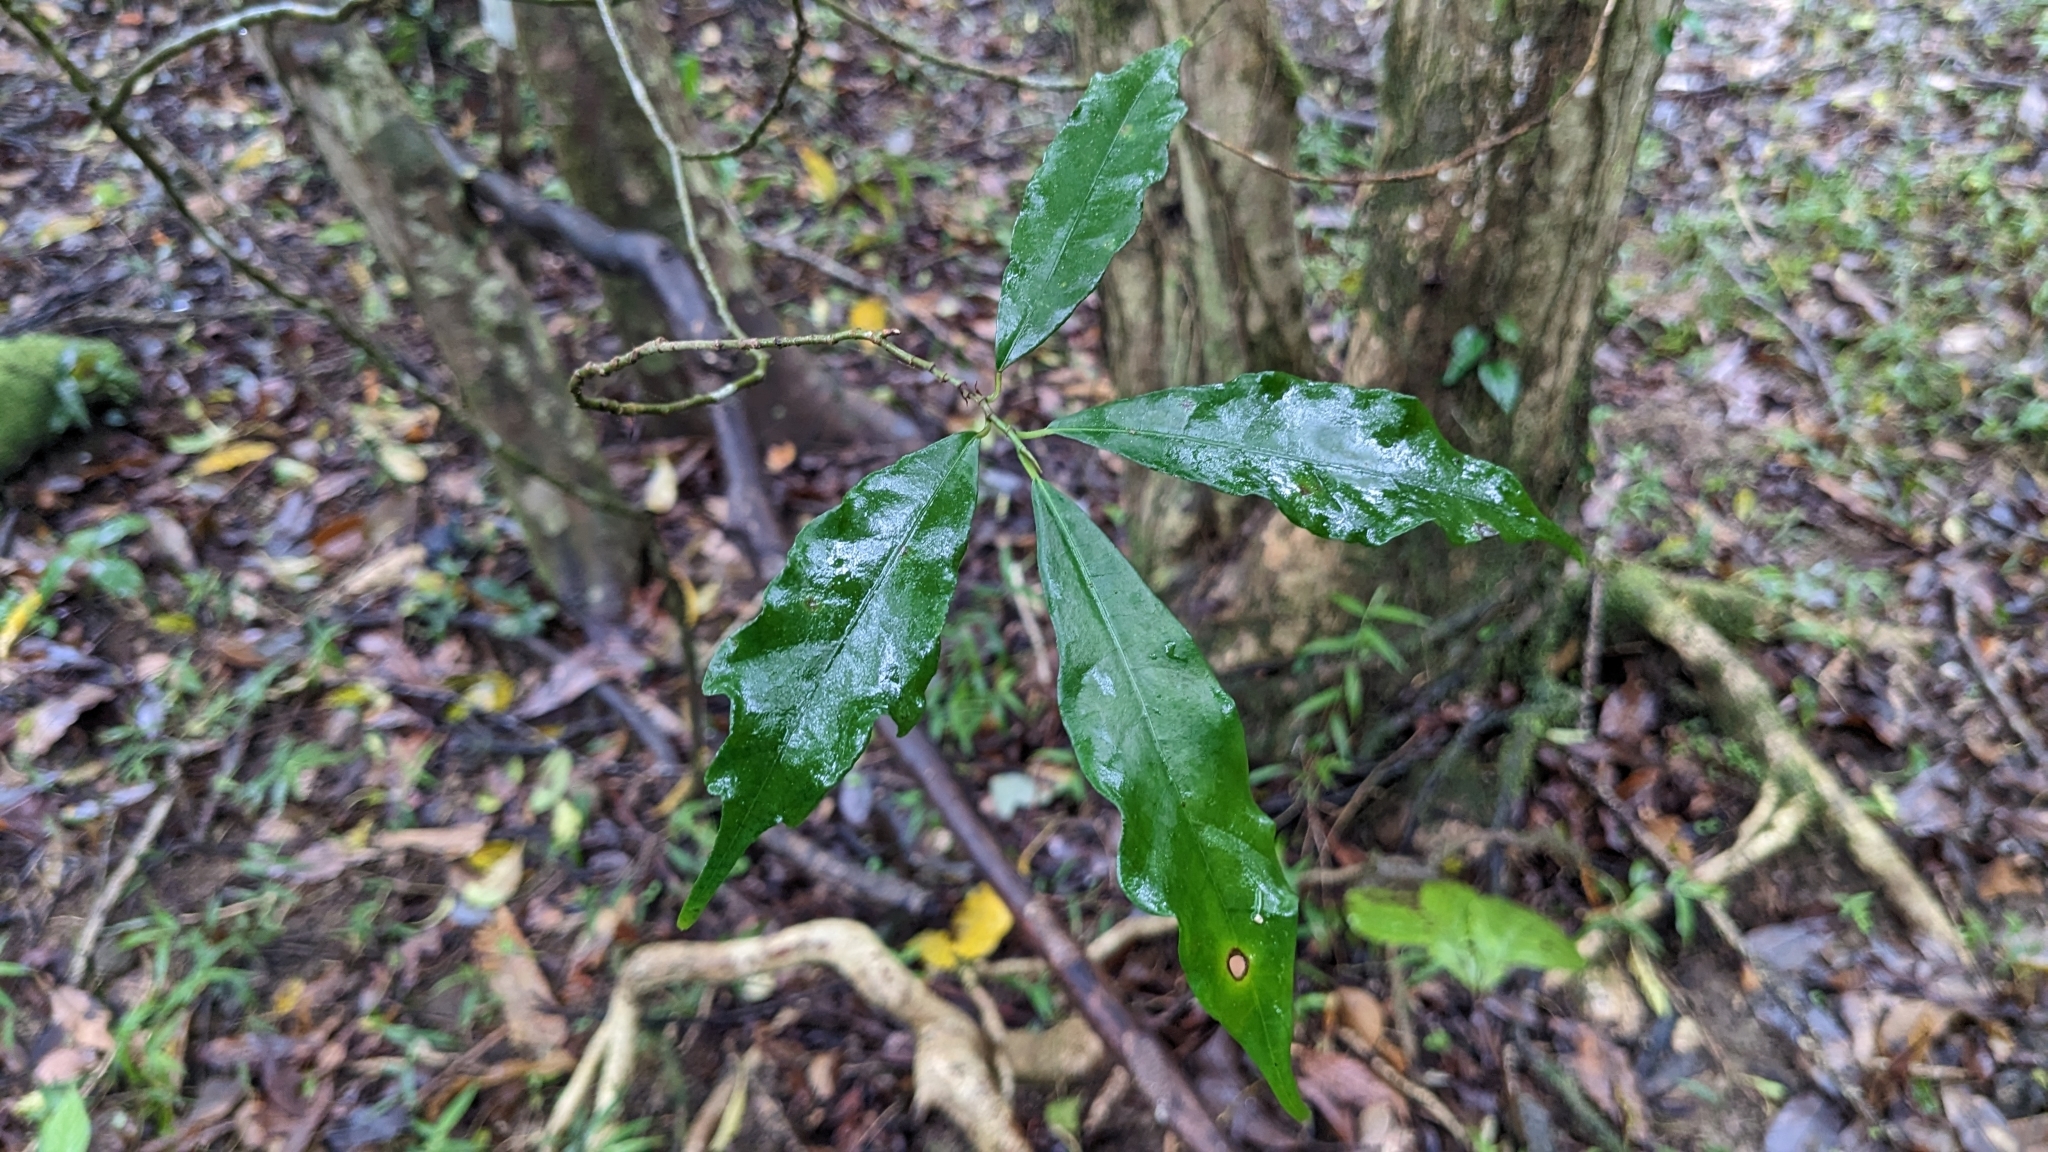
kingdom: Plantae
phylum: Tracheophyta
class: Magnoliopsida
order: Rosales
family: Moraceae
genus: Ficus
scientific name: Ficus formosana
